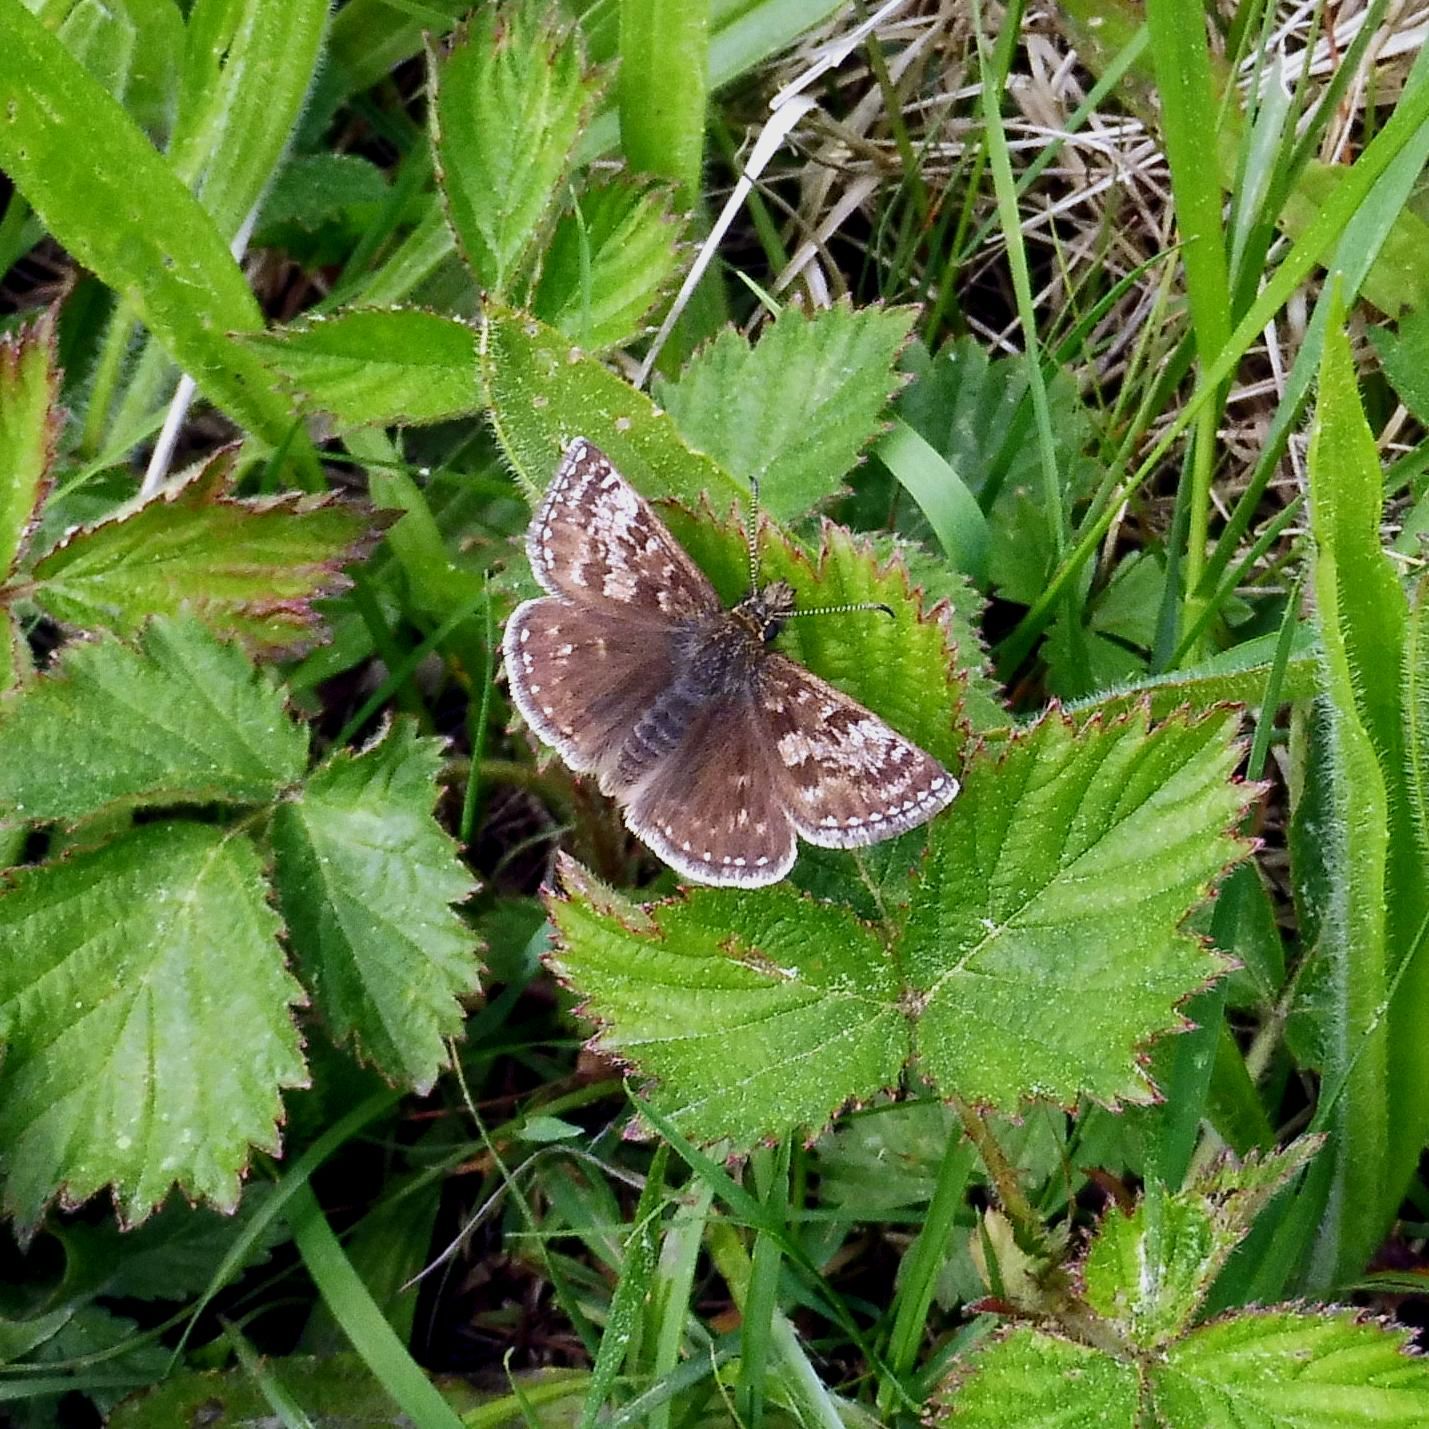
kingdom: Animalia
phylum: Arthropoda
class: Insecta
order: Lepidoptera
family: Hesperiidae
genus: Erynnis
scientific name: Erynnis tages
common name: Dingy skipper
